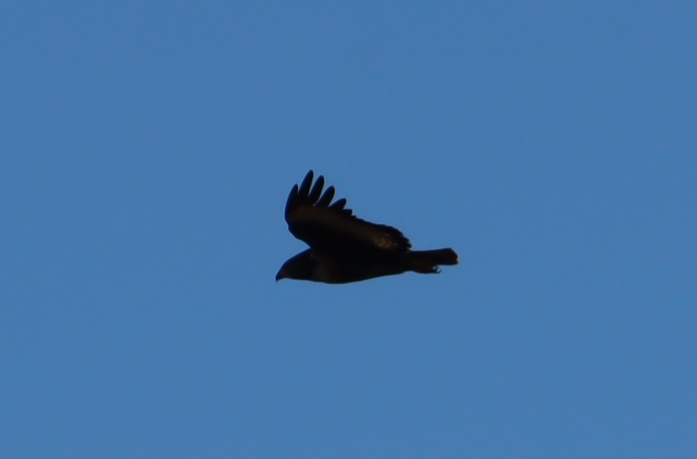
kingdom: Animalia
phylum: Chordata
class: Aves
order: Accipitriformes
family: Accipitridae
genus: Buteo
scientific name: Buteo rufofuscus
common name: Jackal buzzard
